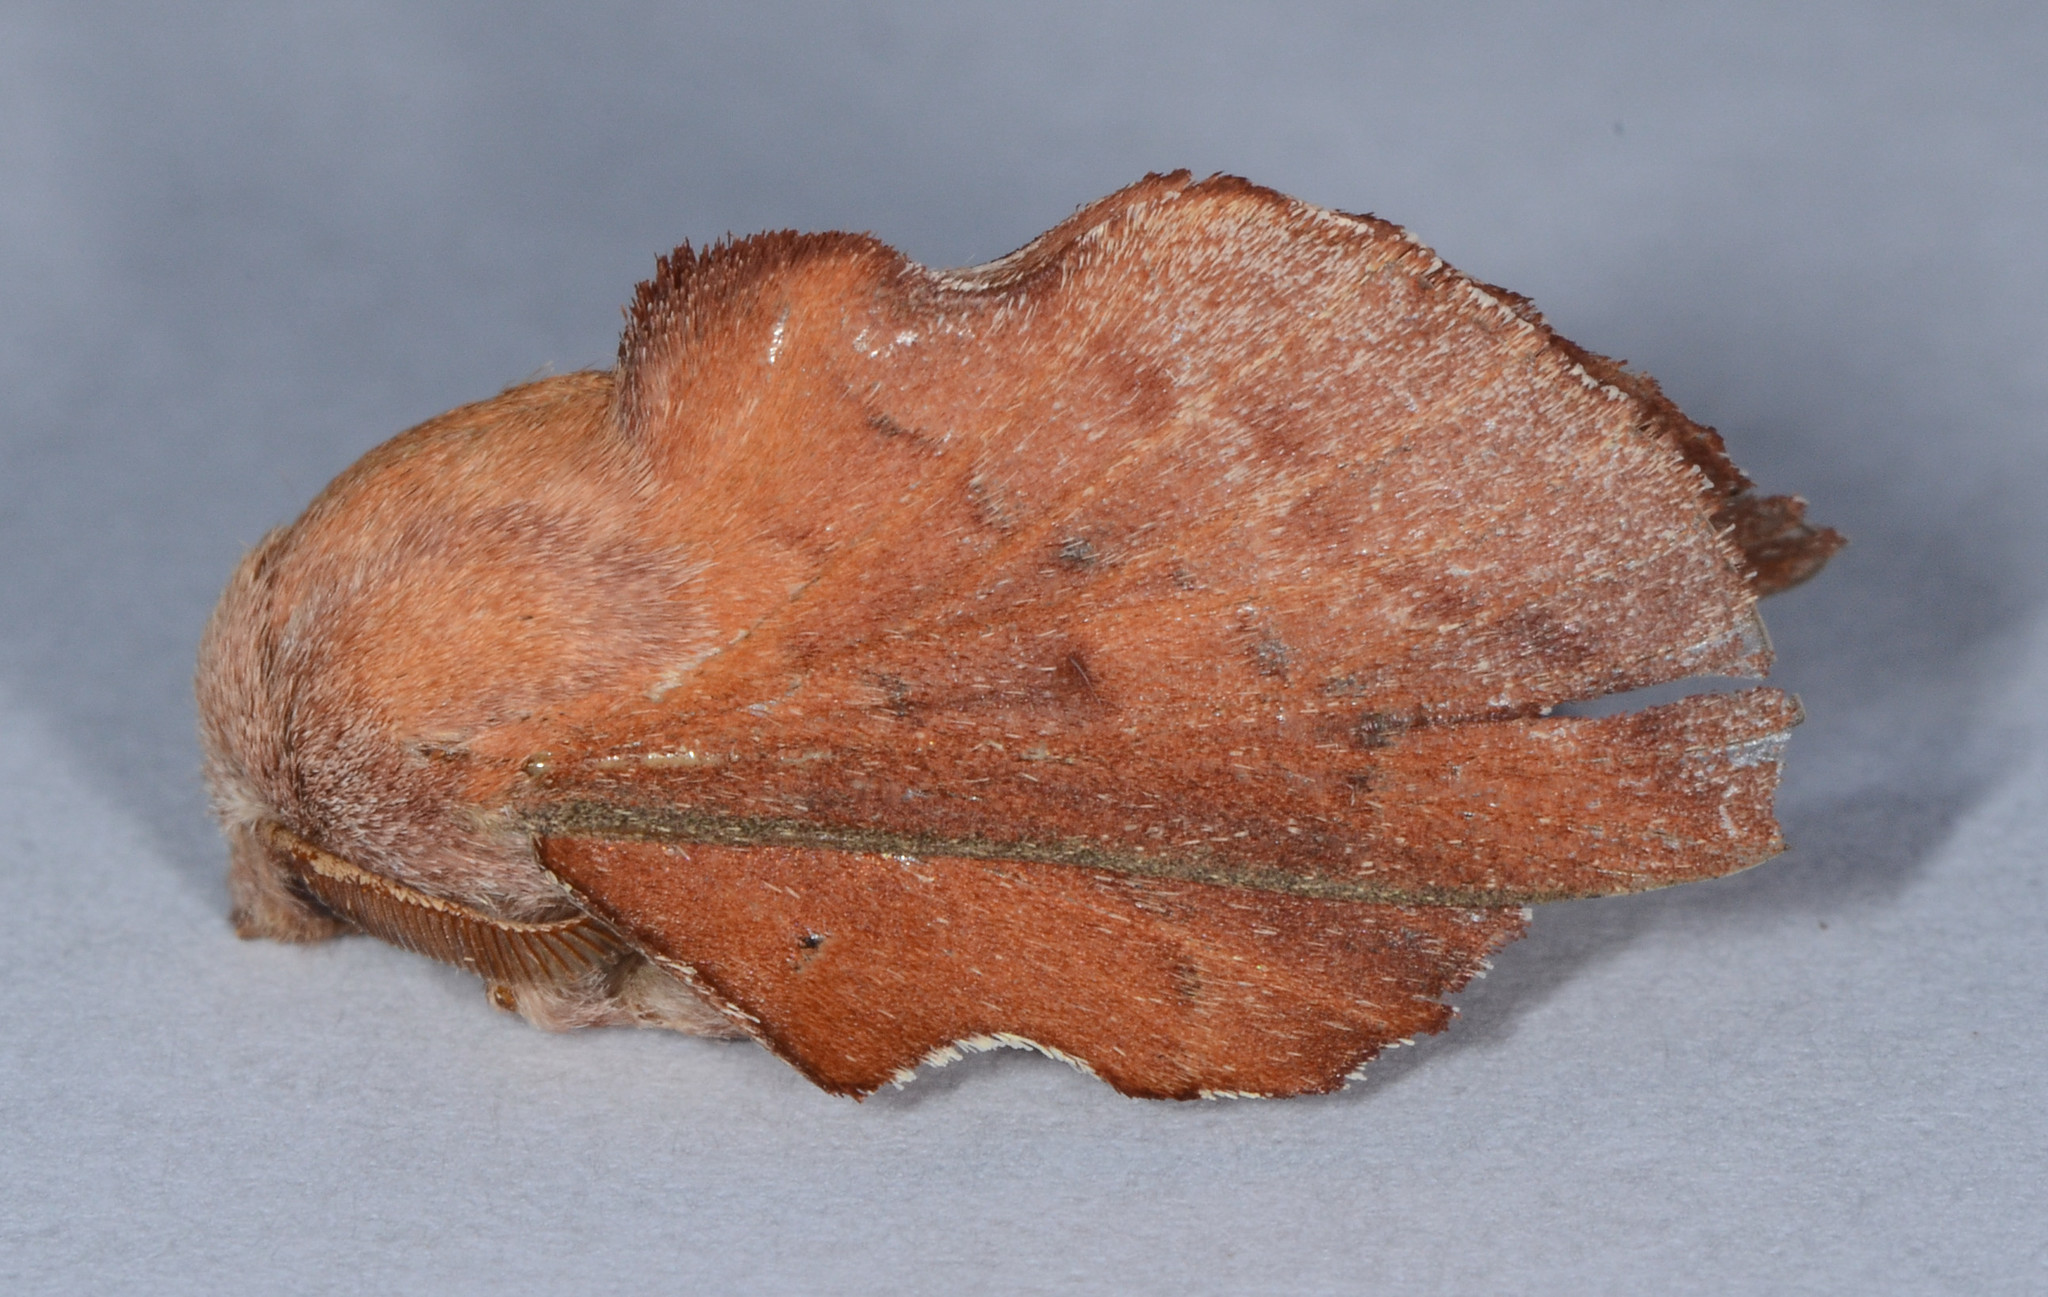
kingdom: Animalia
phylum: Arthropoda
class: Insecta
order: Lepidoptera
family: Lasiocampidae
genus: Phyllodesma
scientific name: Phyllodesma americana
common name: American lappet moth
